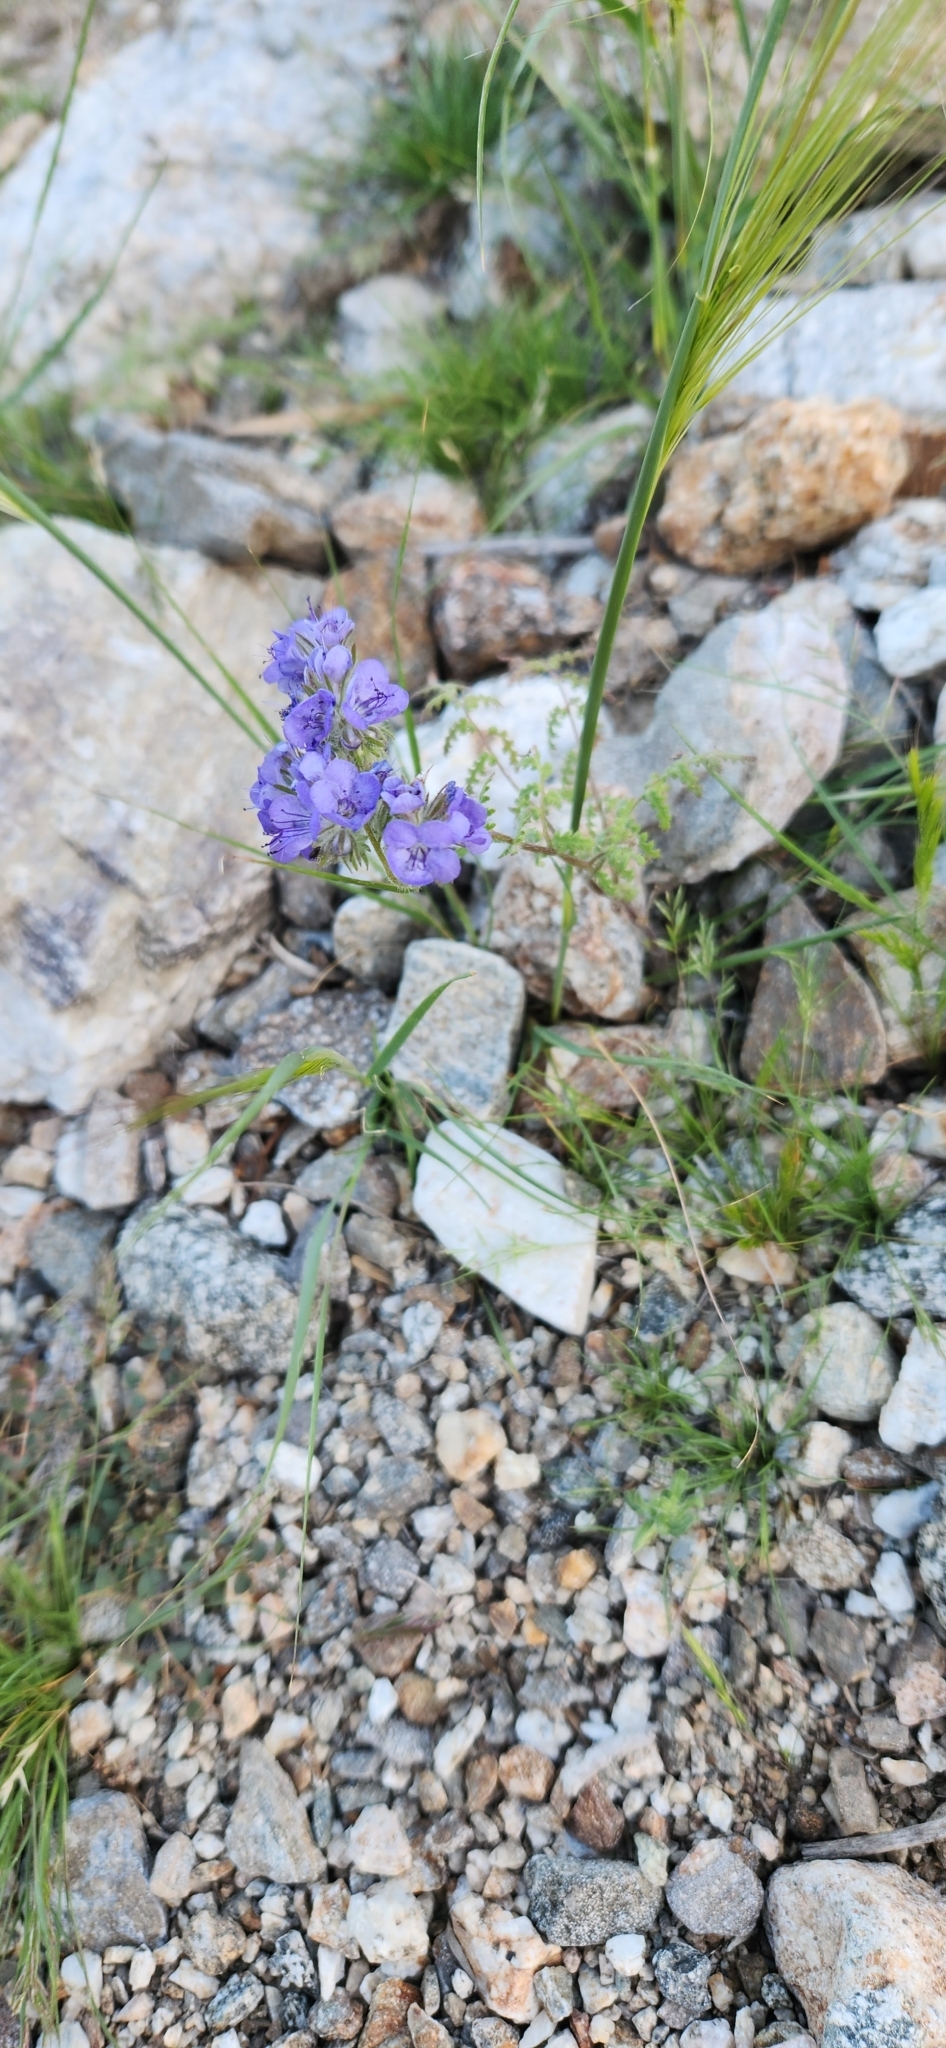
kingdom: Plantae
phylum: Tracheophyta
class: Magnoliopsida
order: Boraginales
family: Hydrophyllaceae
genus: Phacelia
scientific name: Phacelia distans
